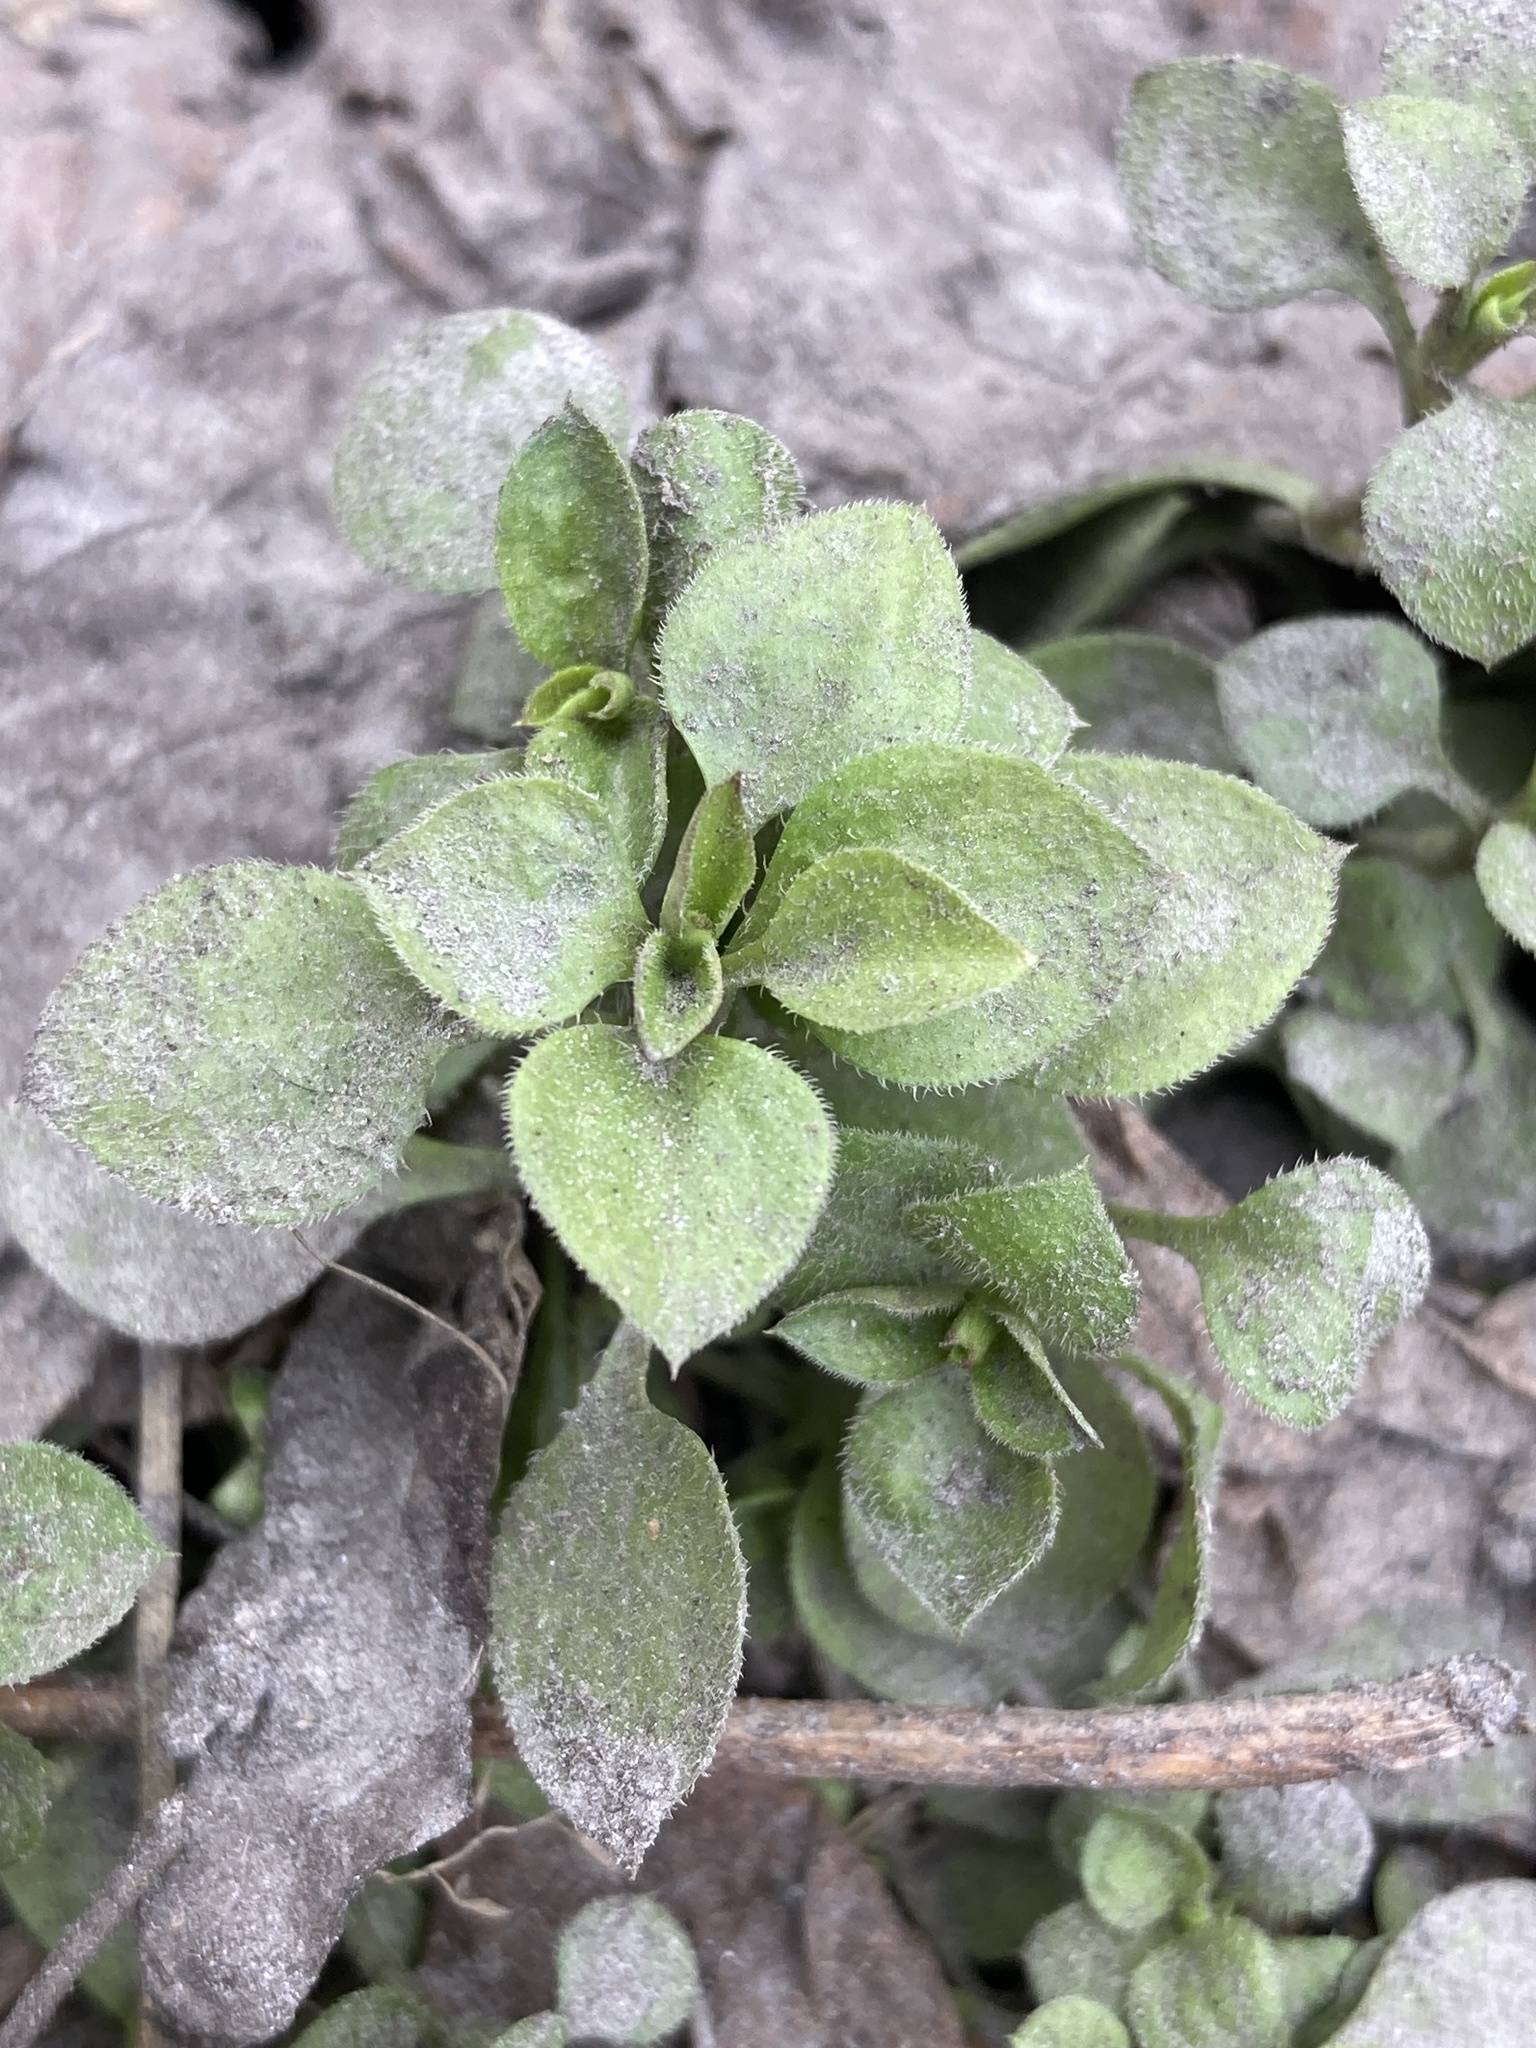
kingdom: Plantae
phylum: Tracheophyta
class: Magnoliopsida
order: Caryophyllales
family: Caryophyllaceae
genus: Moehringia
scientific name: Moehringia trinervia
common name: Three-nerved sandwort
